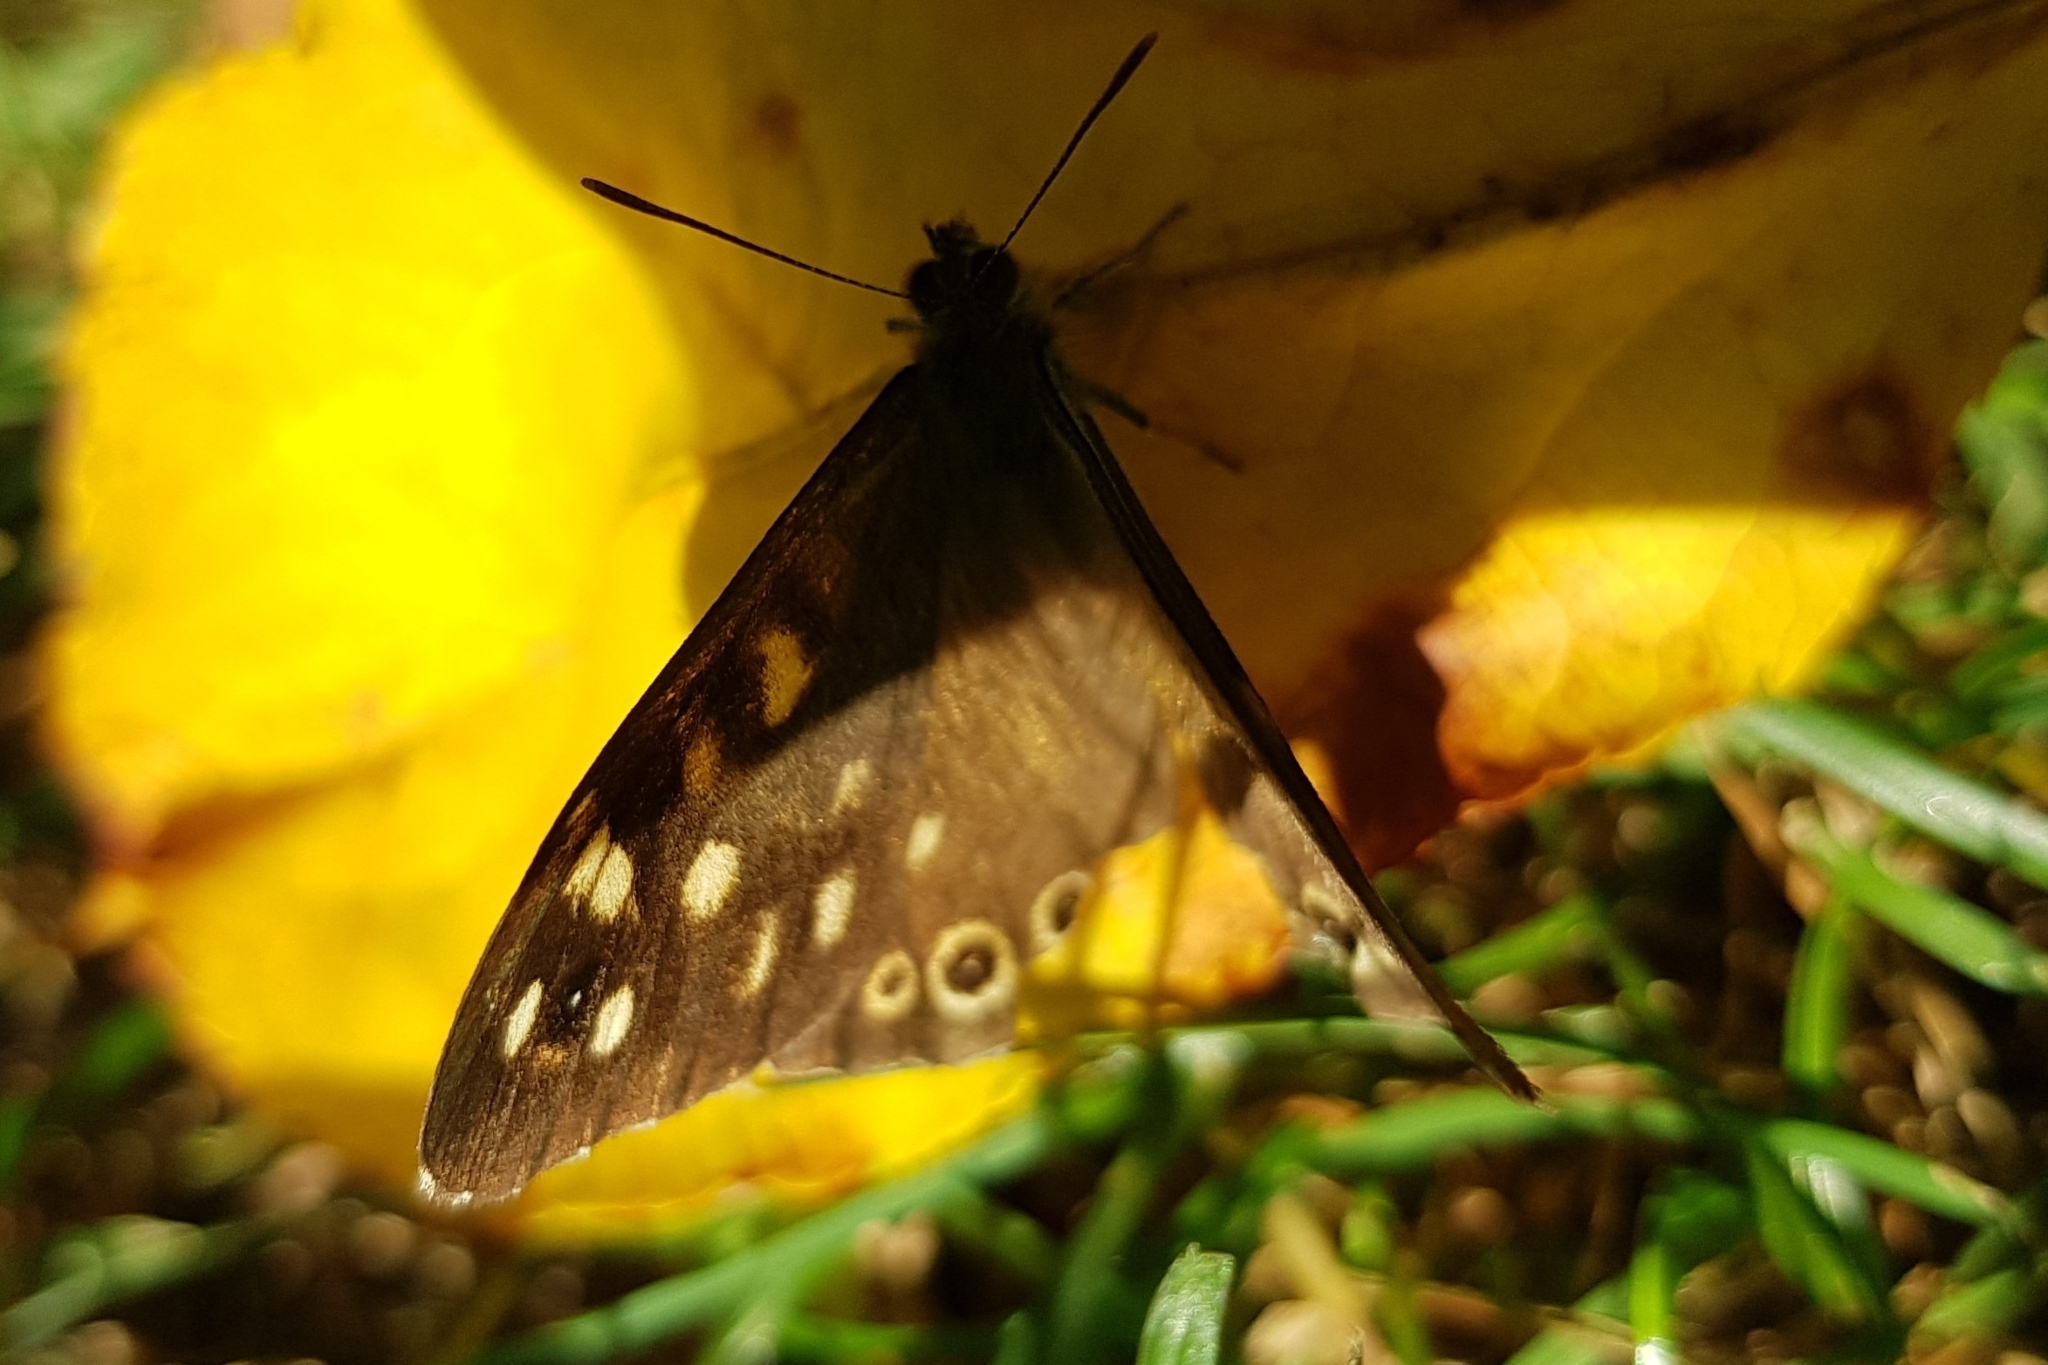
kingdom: Animalia
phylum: Arthropoda
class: Insecta
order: Lepidoptera
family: Nymphalidae
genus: Pararge
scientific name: Pararge aegeria
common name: Speckled wood
